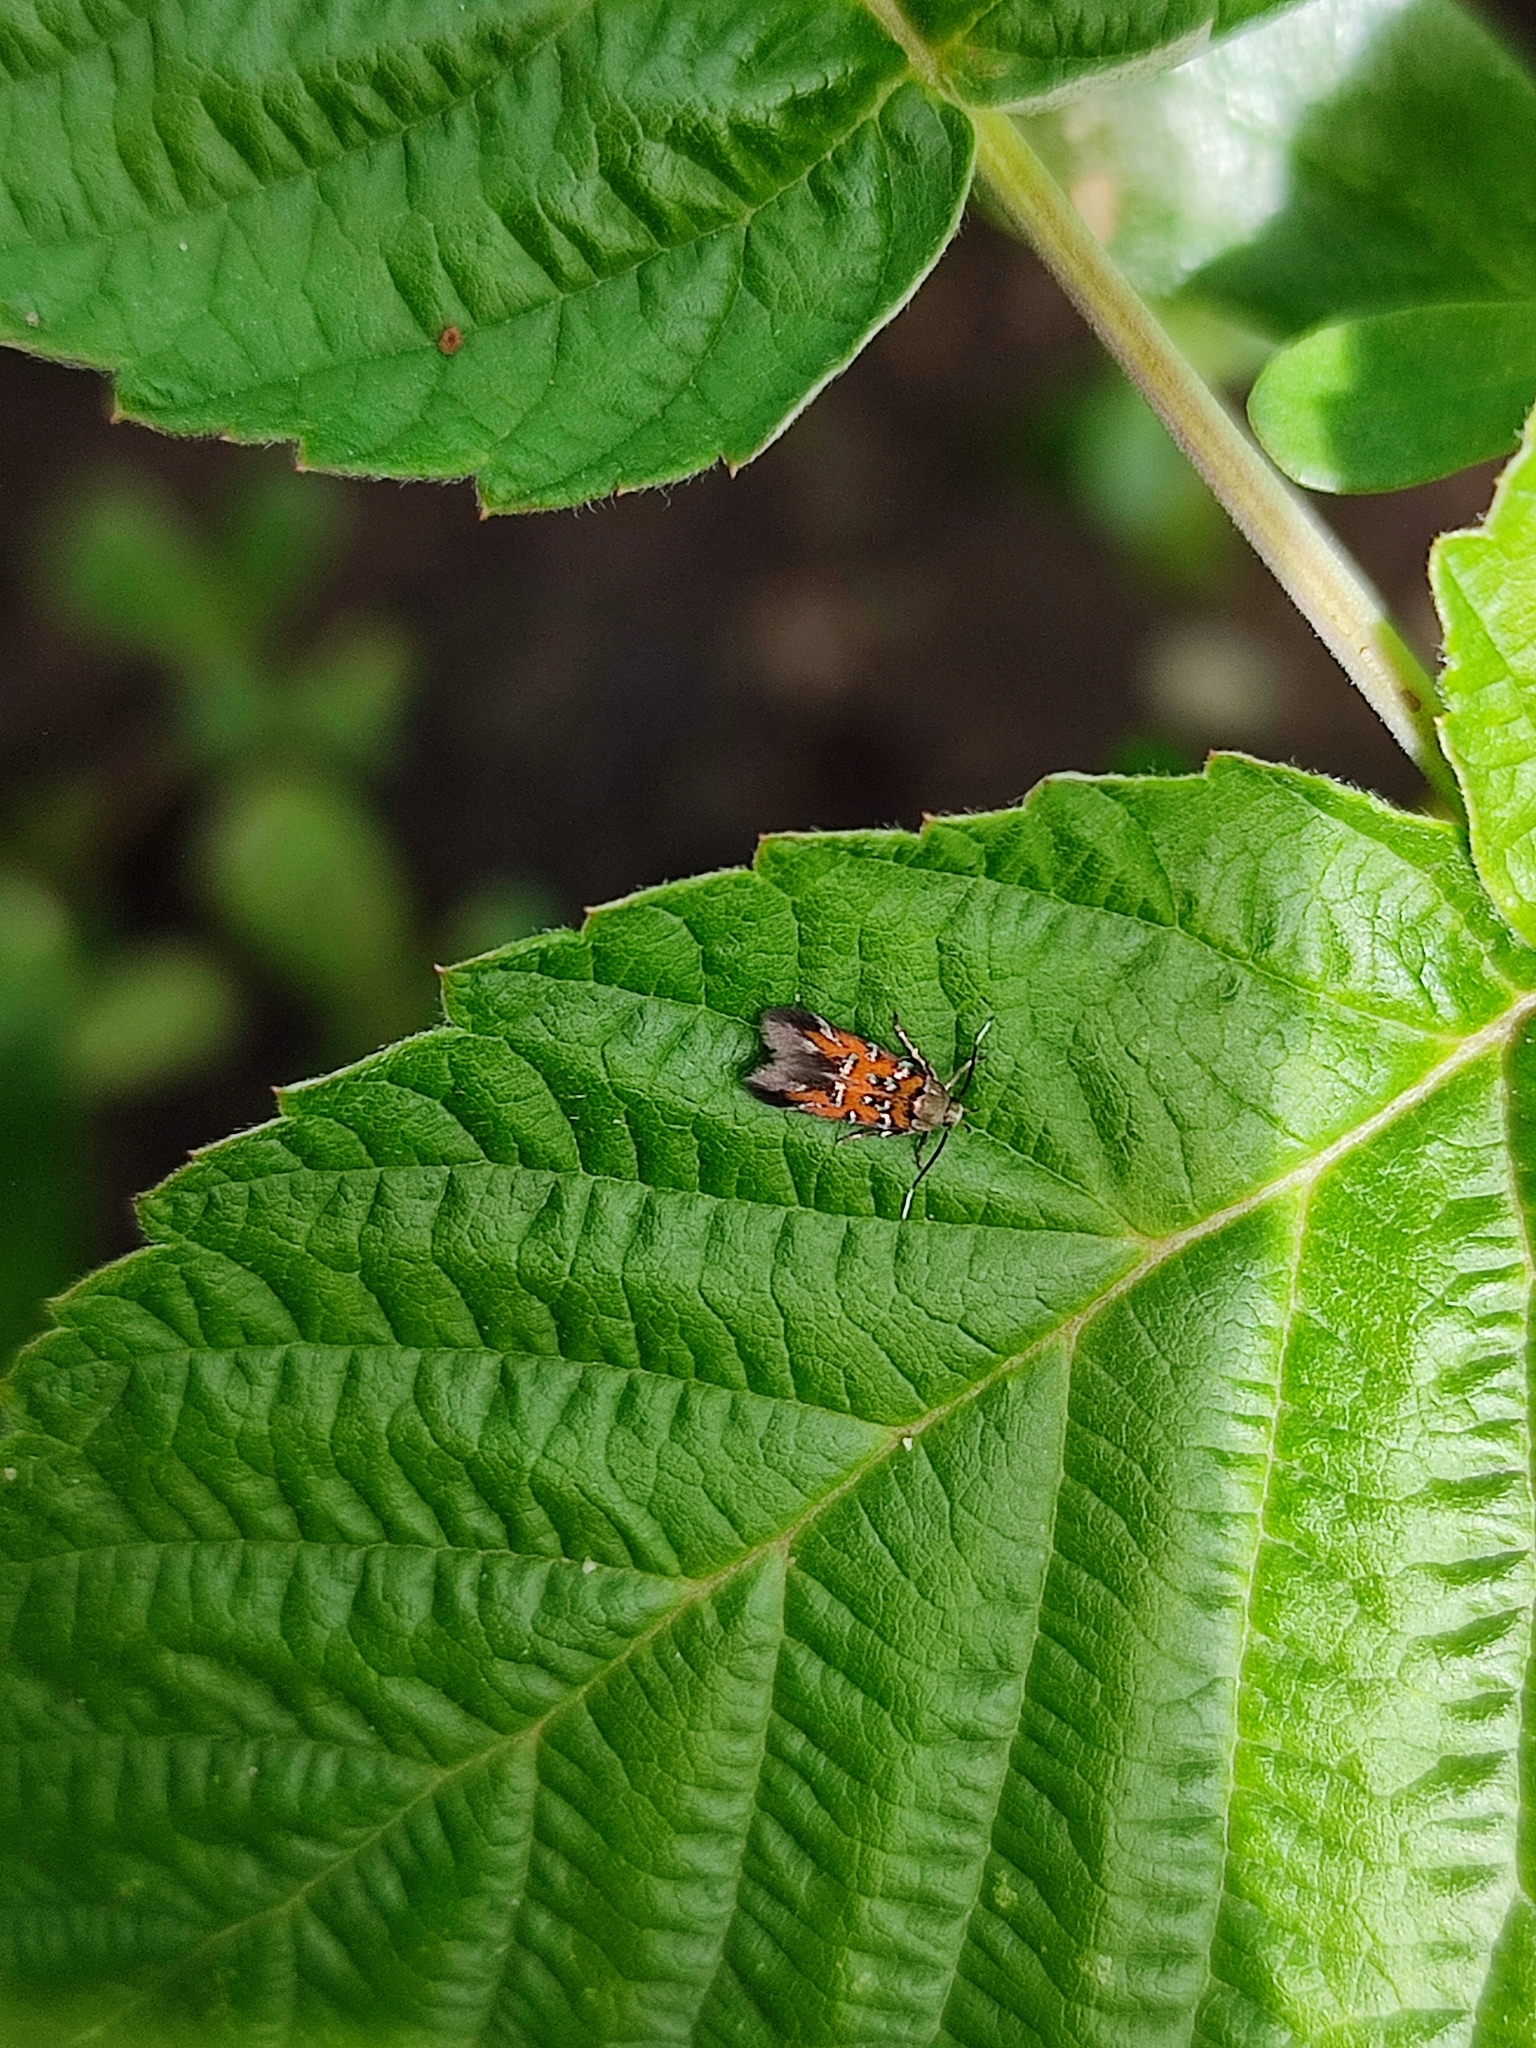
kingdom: Animalia
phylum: Arthropoda
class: Insecta
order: Lepidoptera
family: Cosmopterigidae
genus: Pancalia
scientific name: Pancalia leuwenhoekella
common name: Violet cosmet
